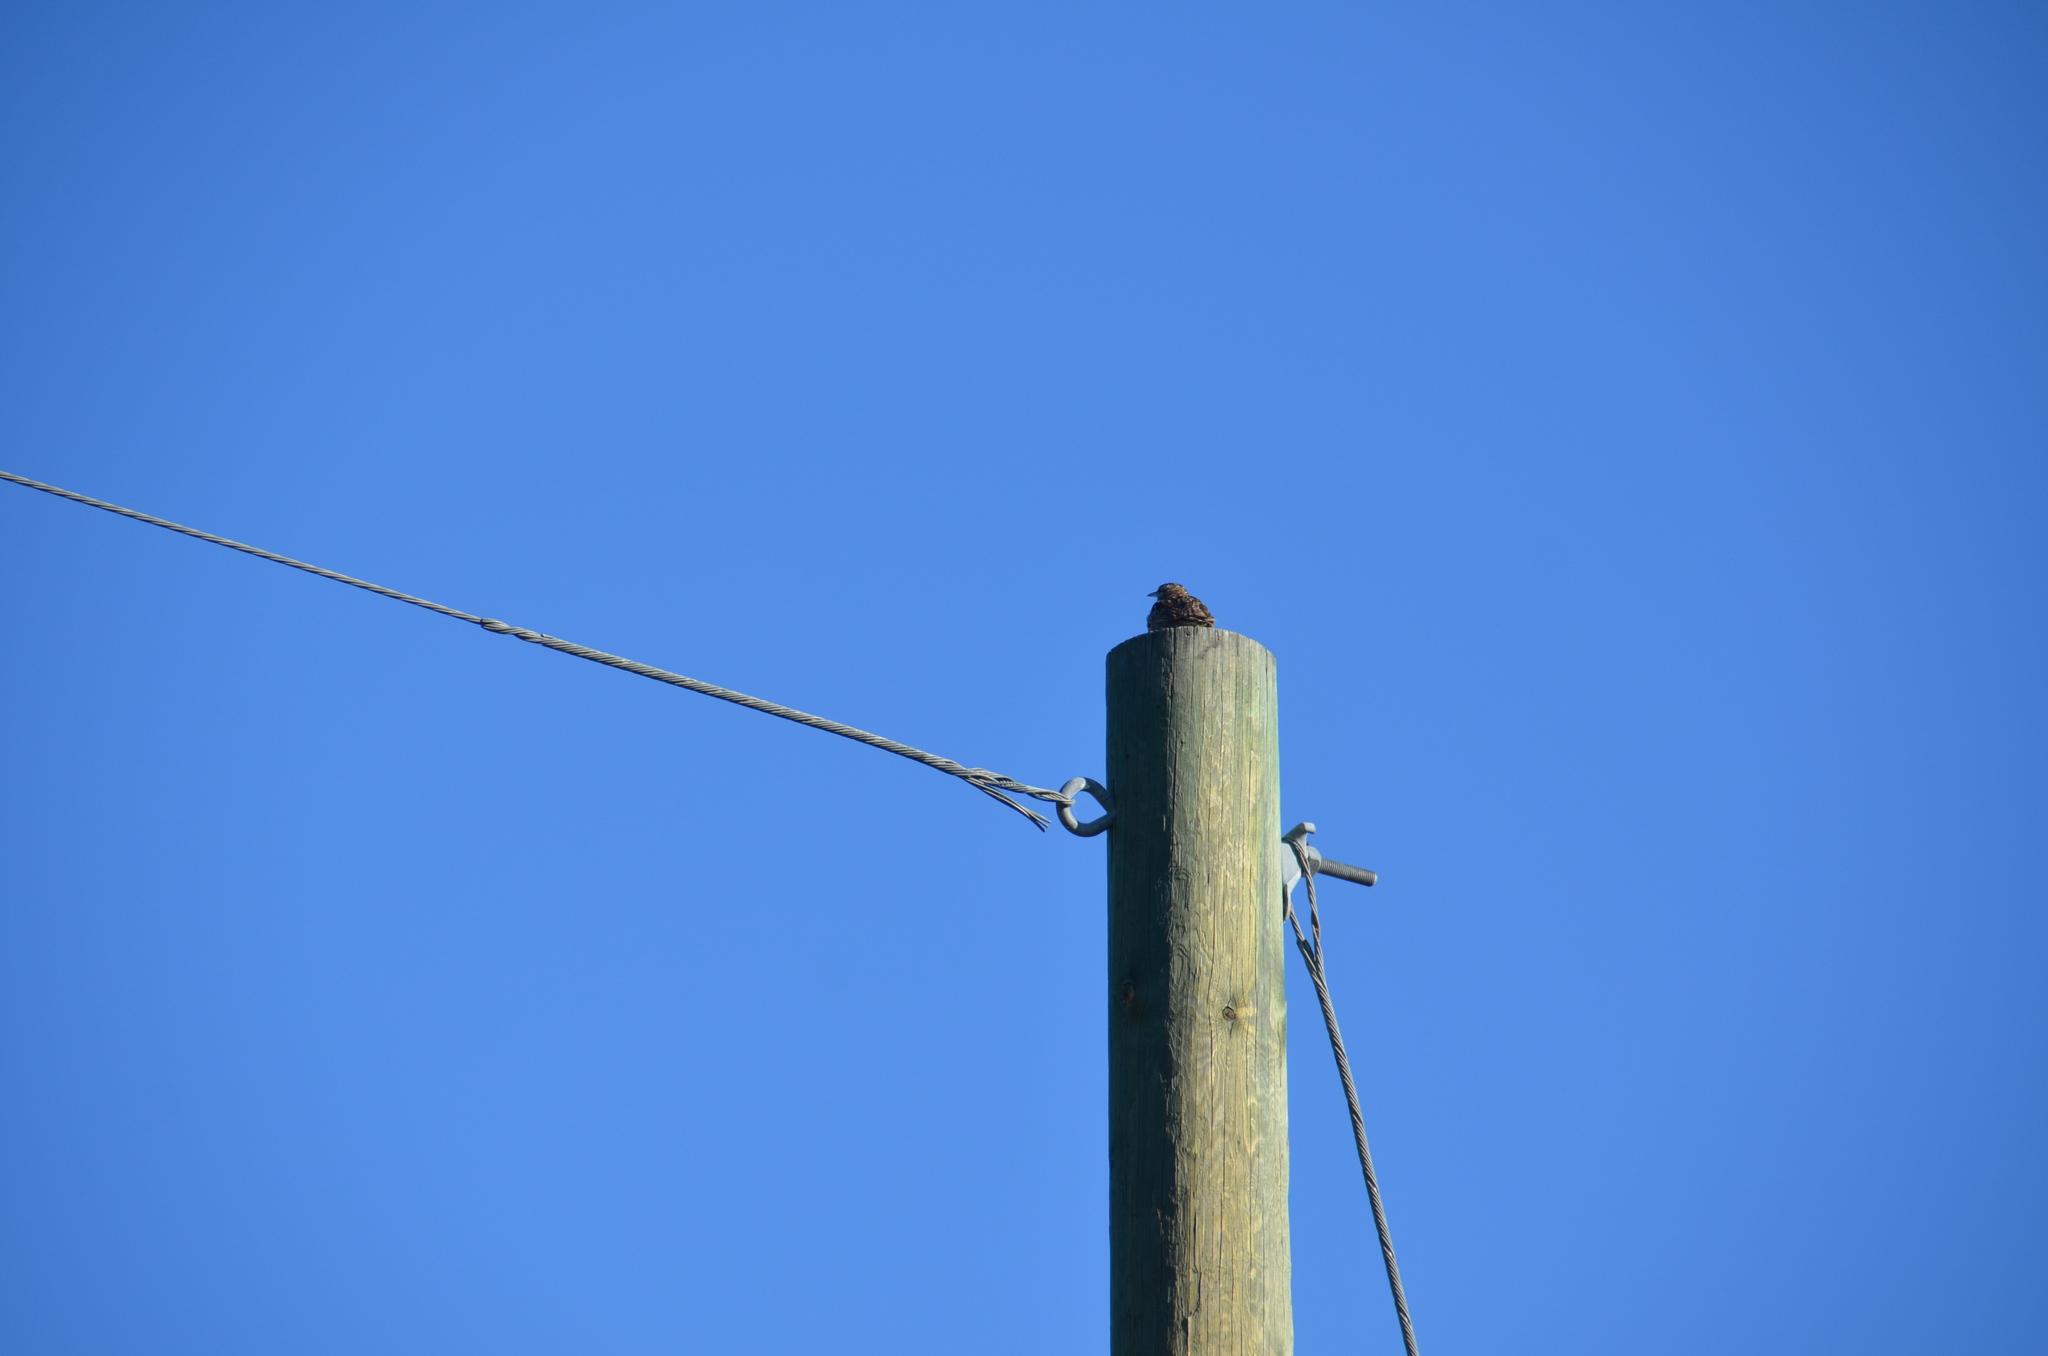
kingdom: Animalia
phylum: Chordata
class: Aves
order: Passeriformes
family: Icteridae
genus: Sturnella
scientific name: Sturnella neglecta
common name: Western meadowlark
